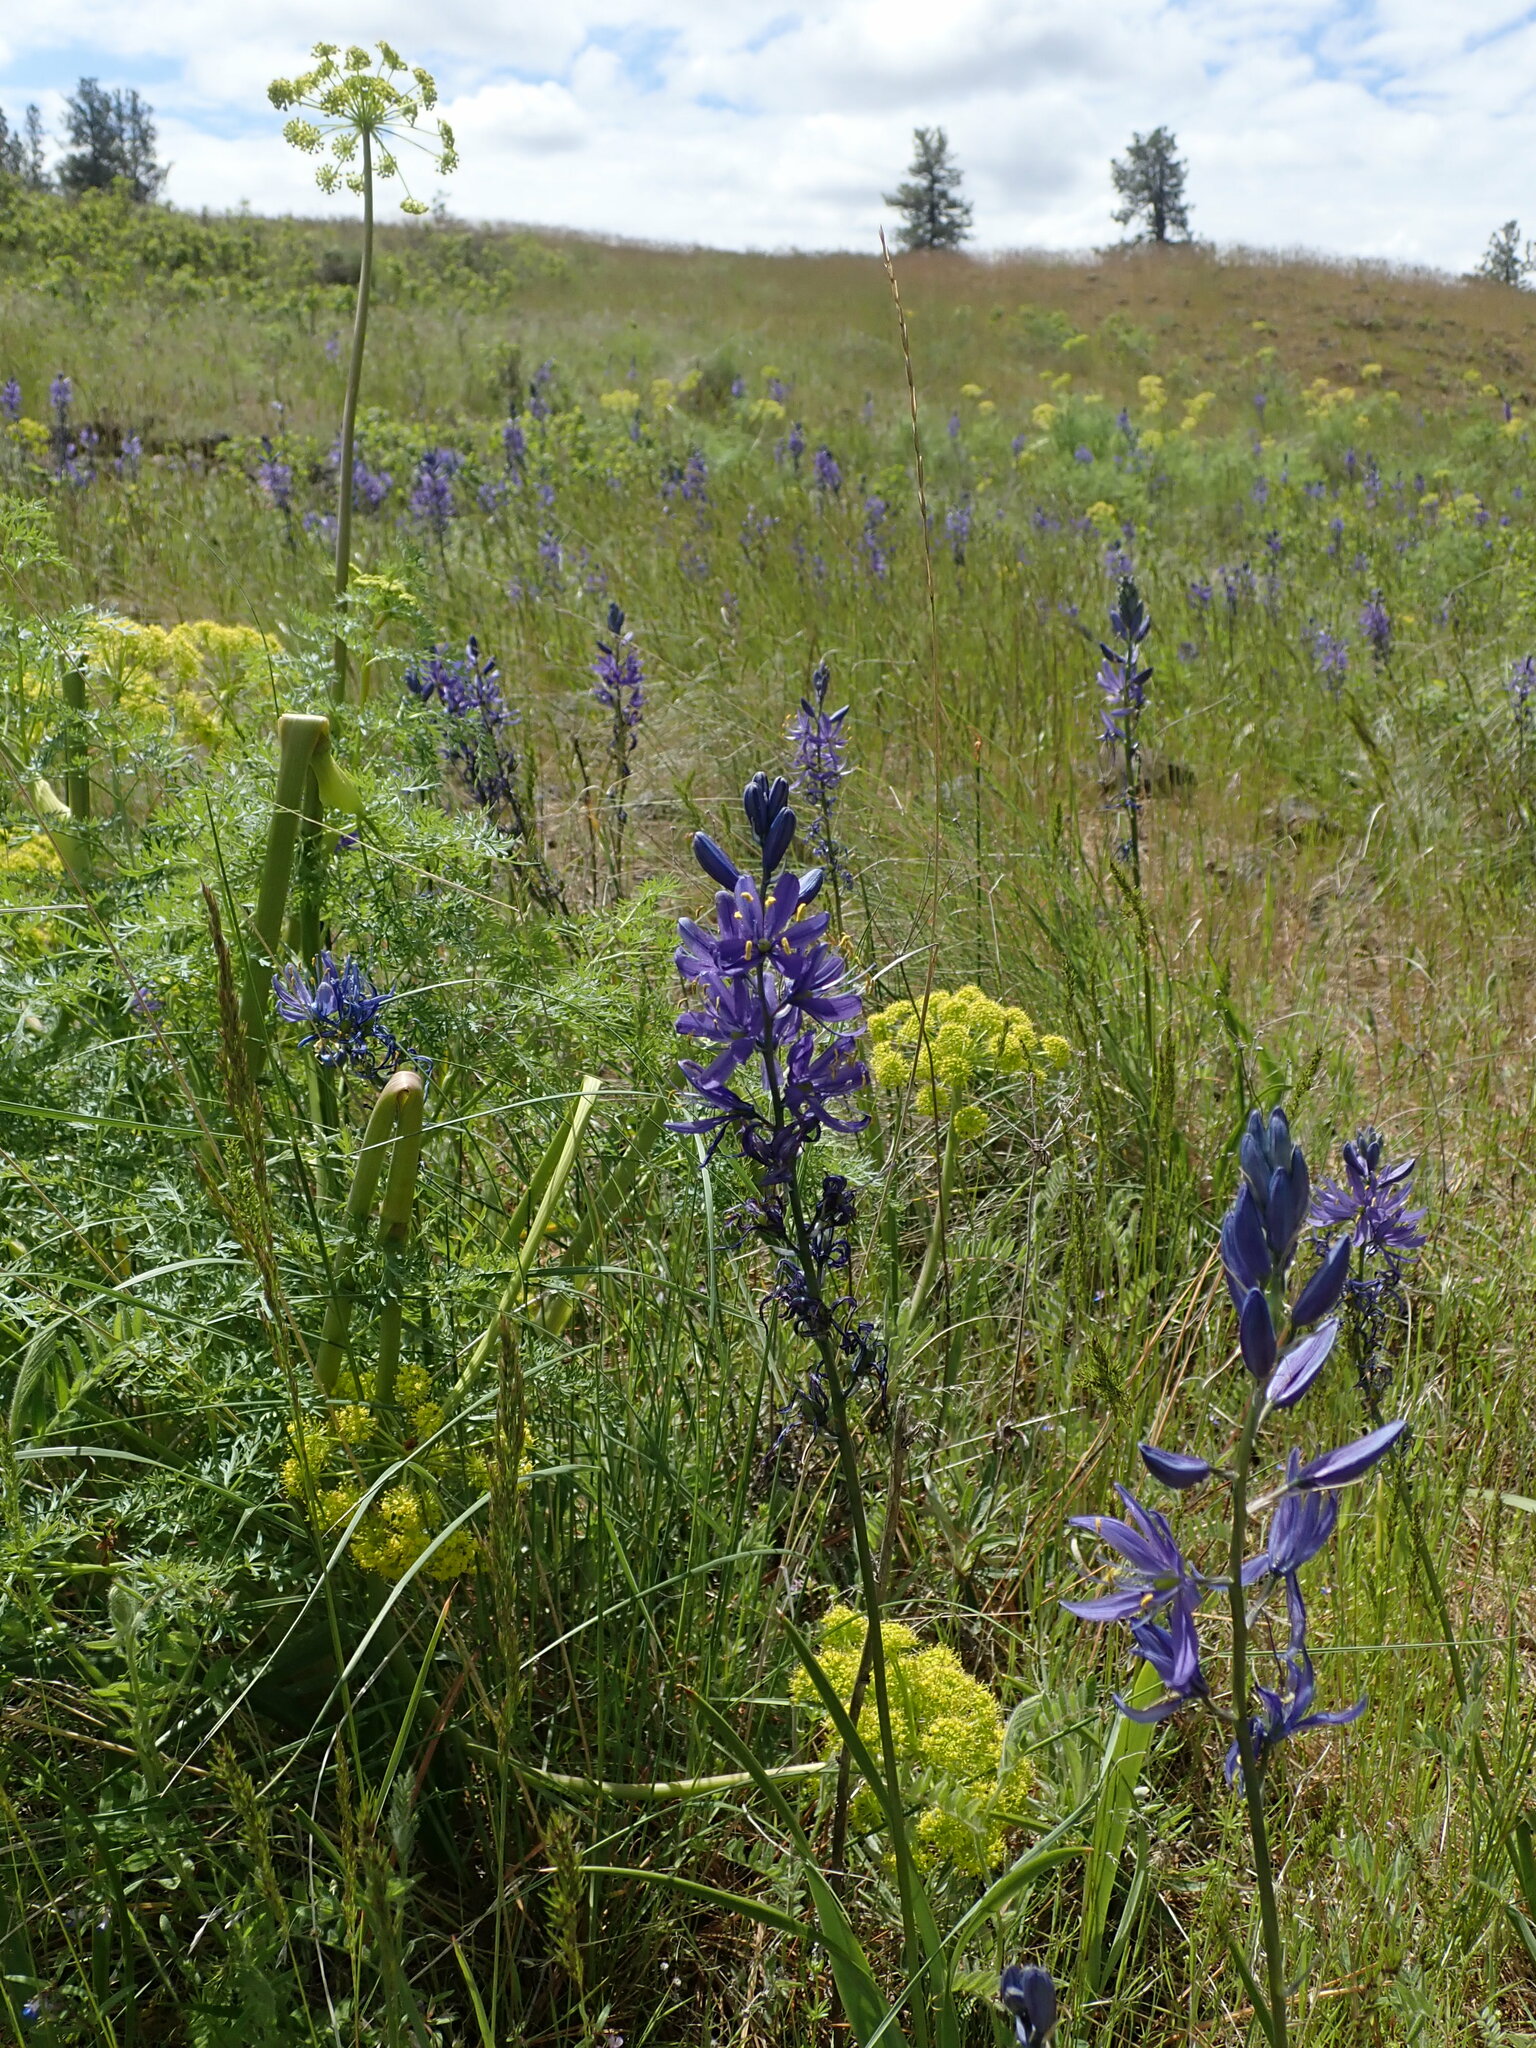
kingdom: Plantae
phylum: Tracheophyta
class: Liliopsida
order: Asparagales
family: Asparagaceae
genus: Camassia
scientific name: Camassia quamash
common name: Common camas
